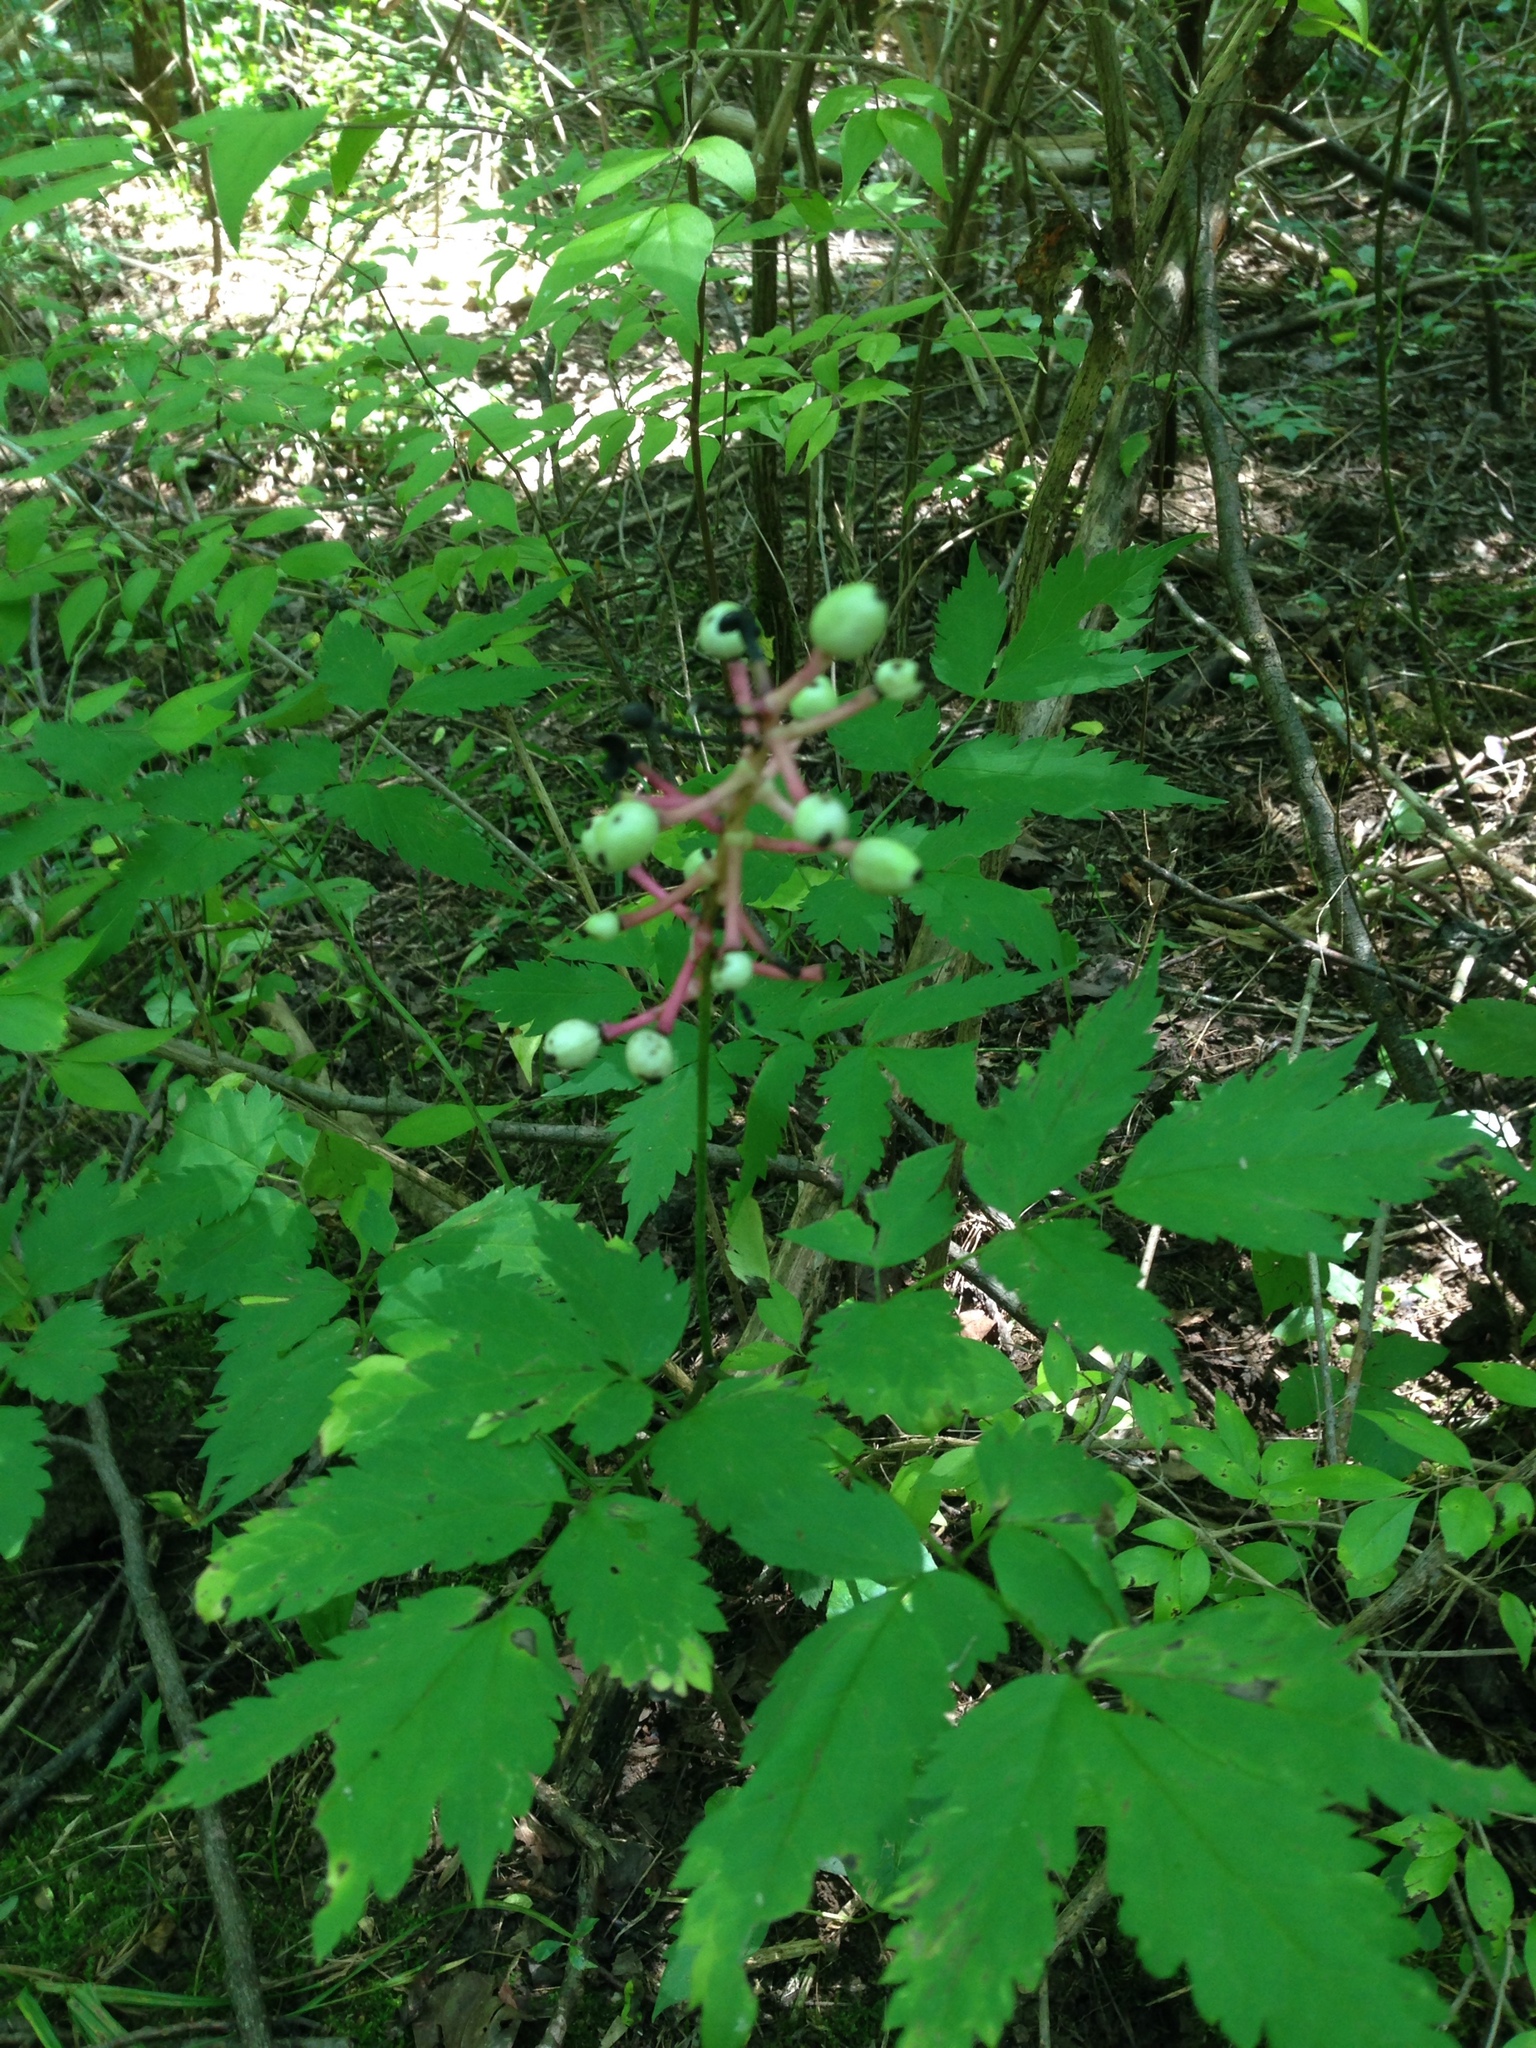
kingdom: Plantae
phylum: Tracheophyta
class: Magnoliopsida
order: Ranunculales
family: Ranunculaceae
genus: Actaea
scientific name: Actaea pachypoda
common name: Doll's-eyes
